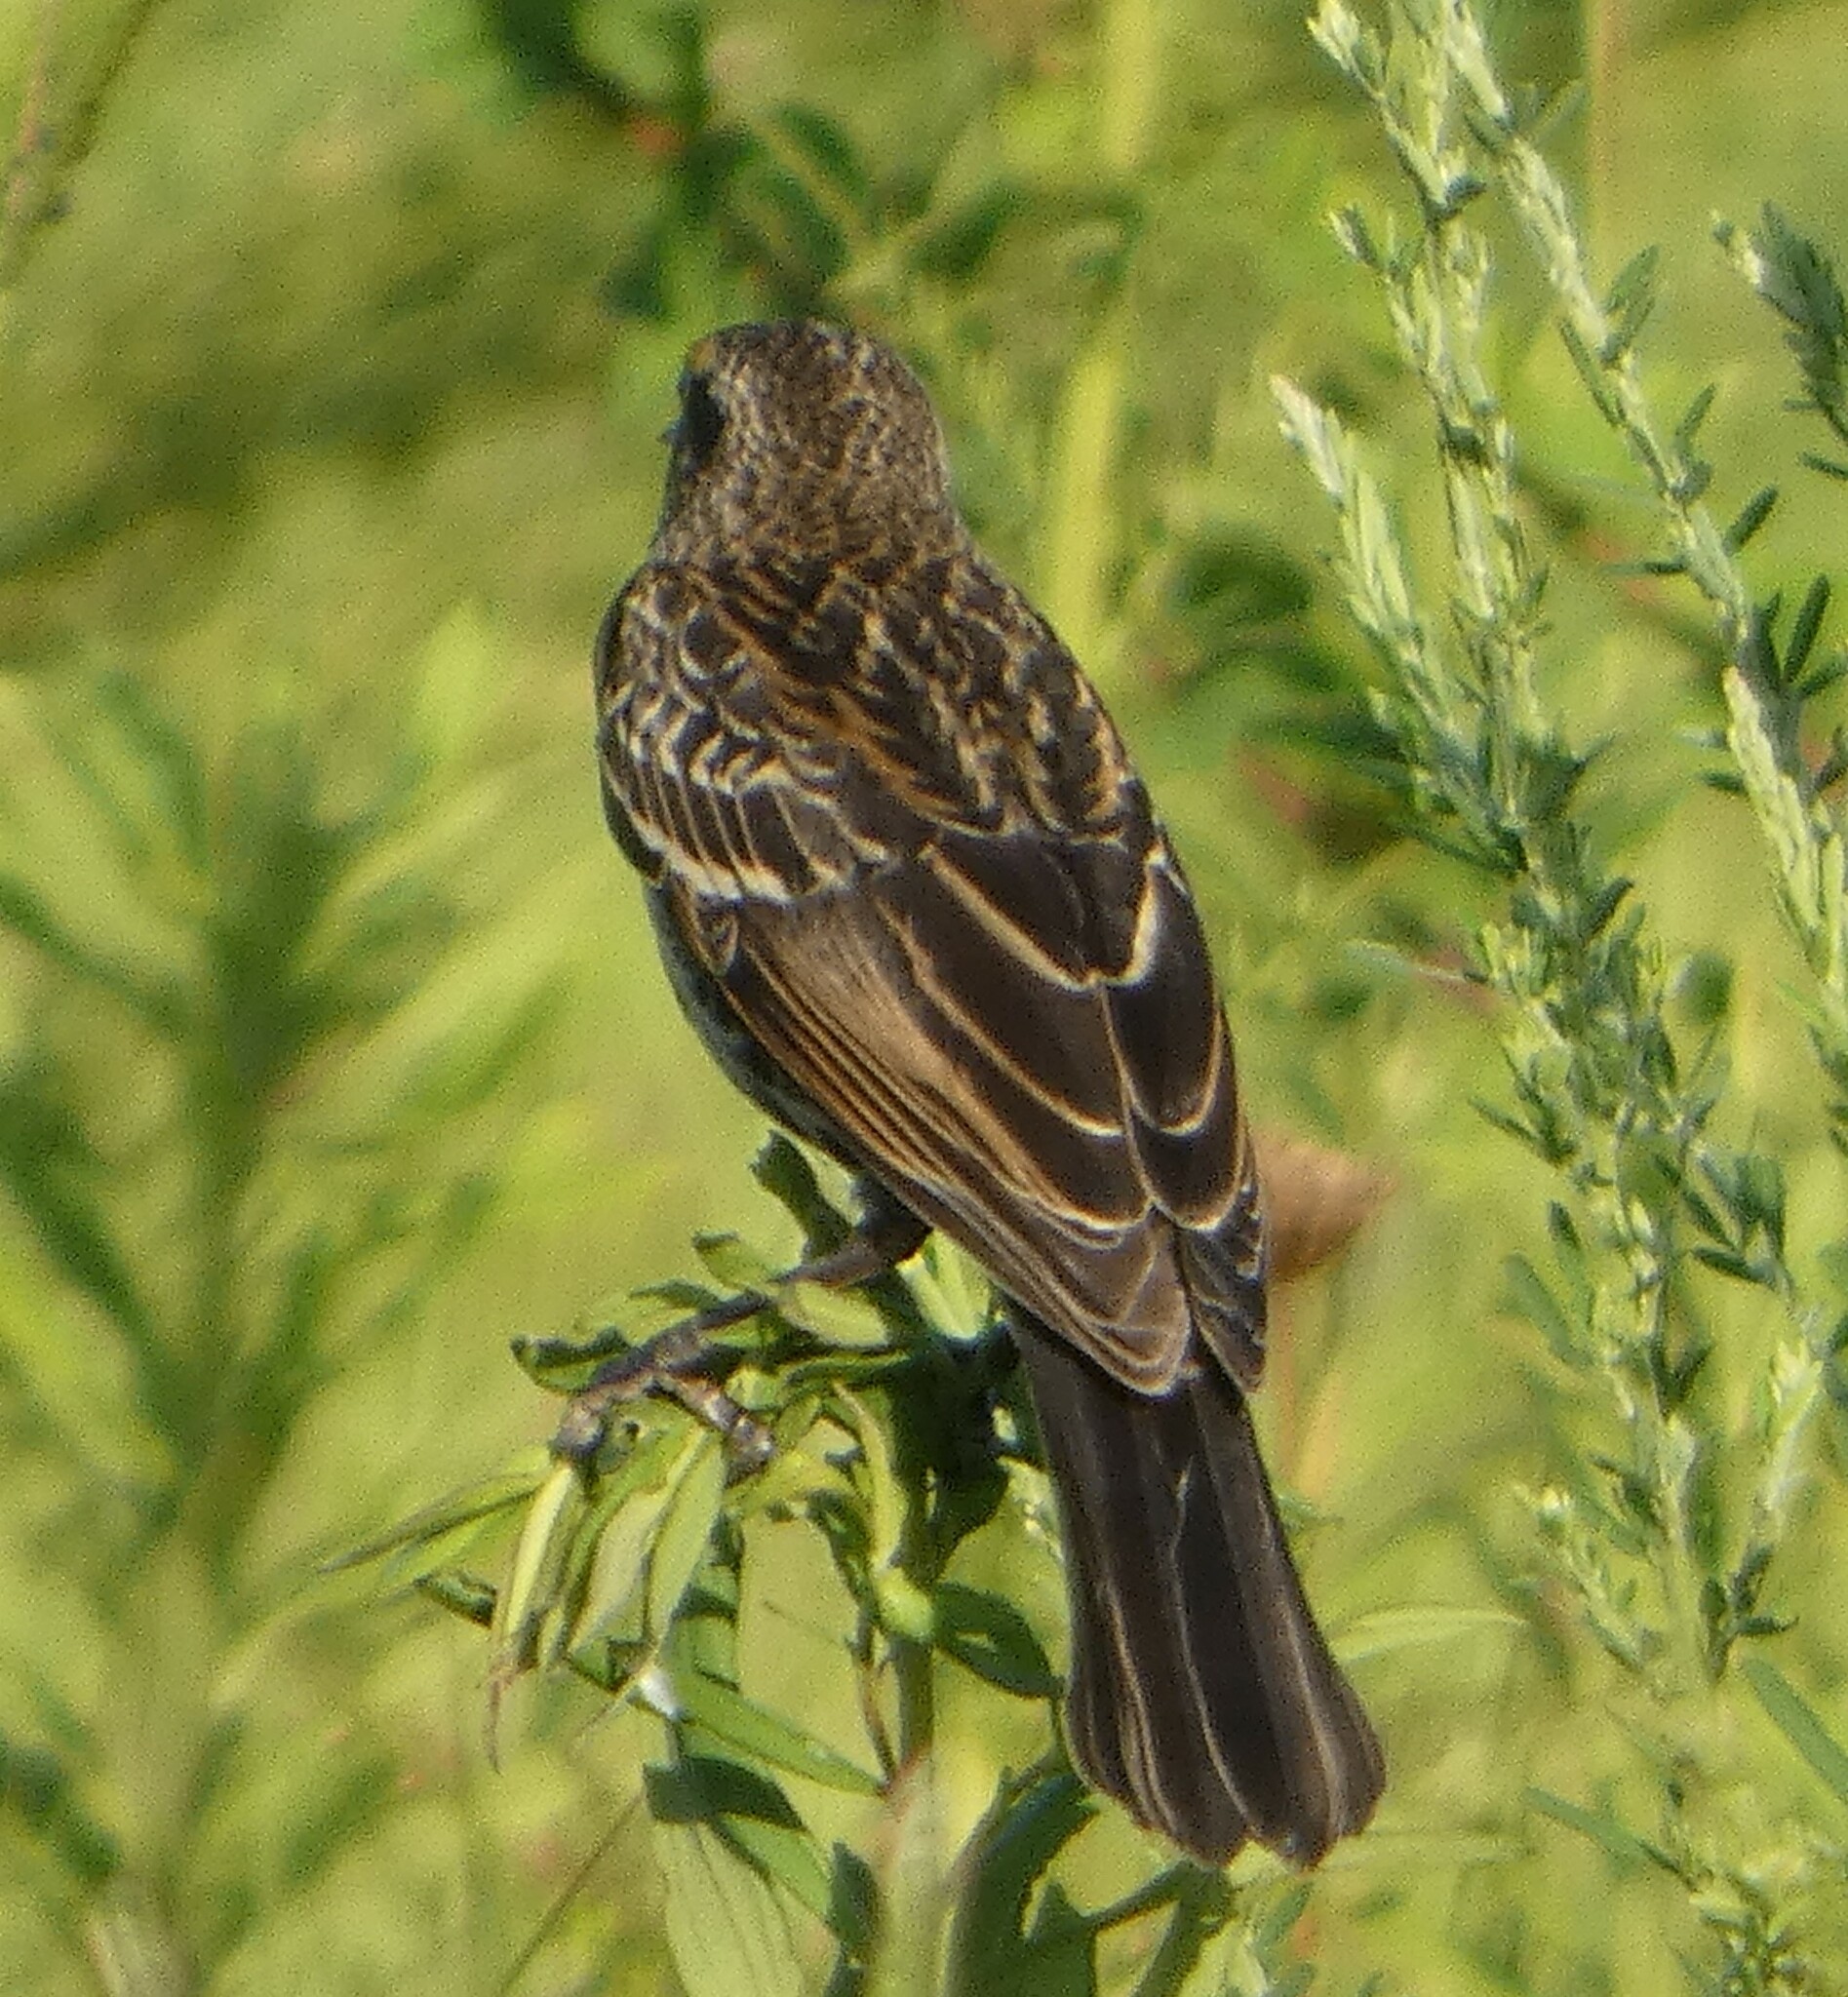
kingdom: Animalia
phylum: Chordata
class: Aves
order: Passeriformes
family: Icteridae
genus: Agelaius
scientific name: Agelaius phoeniceus
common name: Red-winged blackbird
